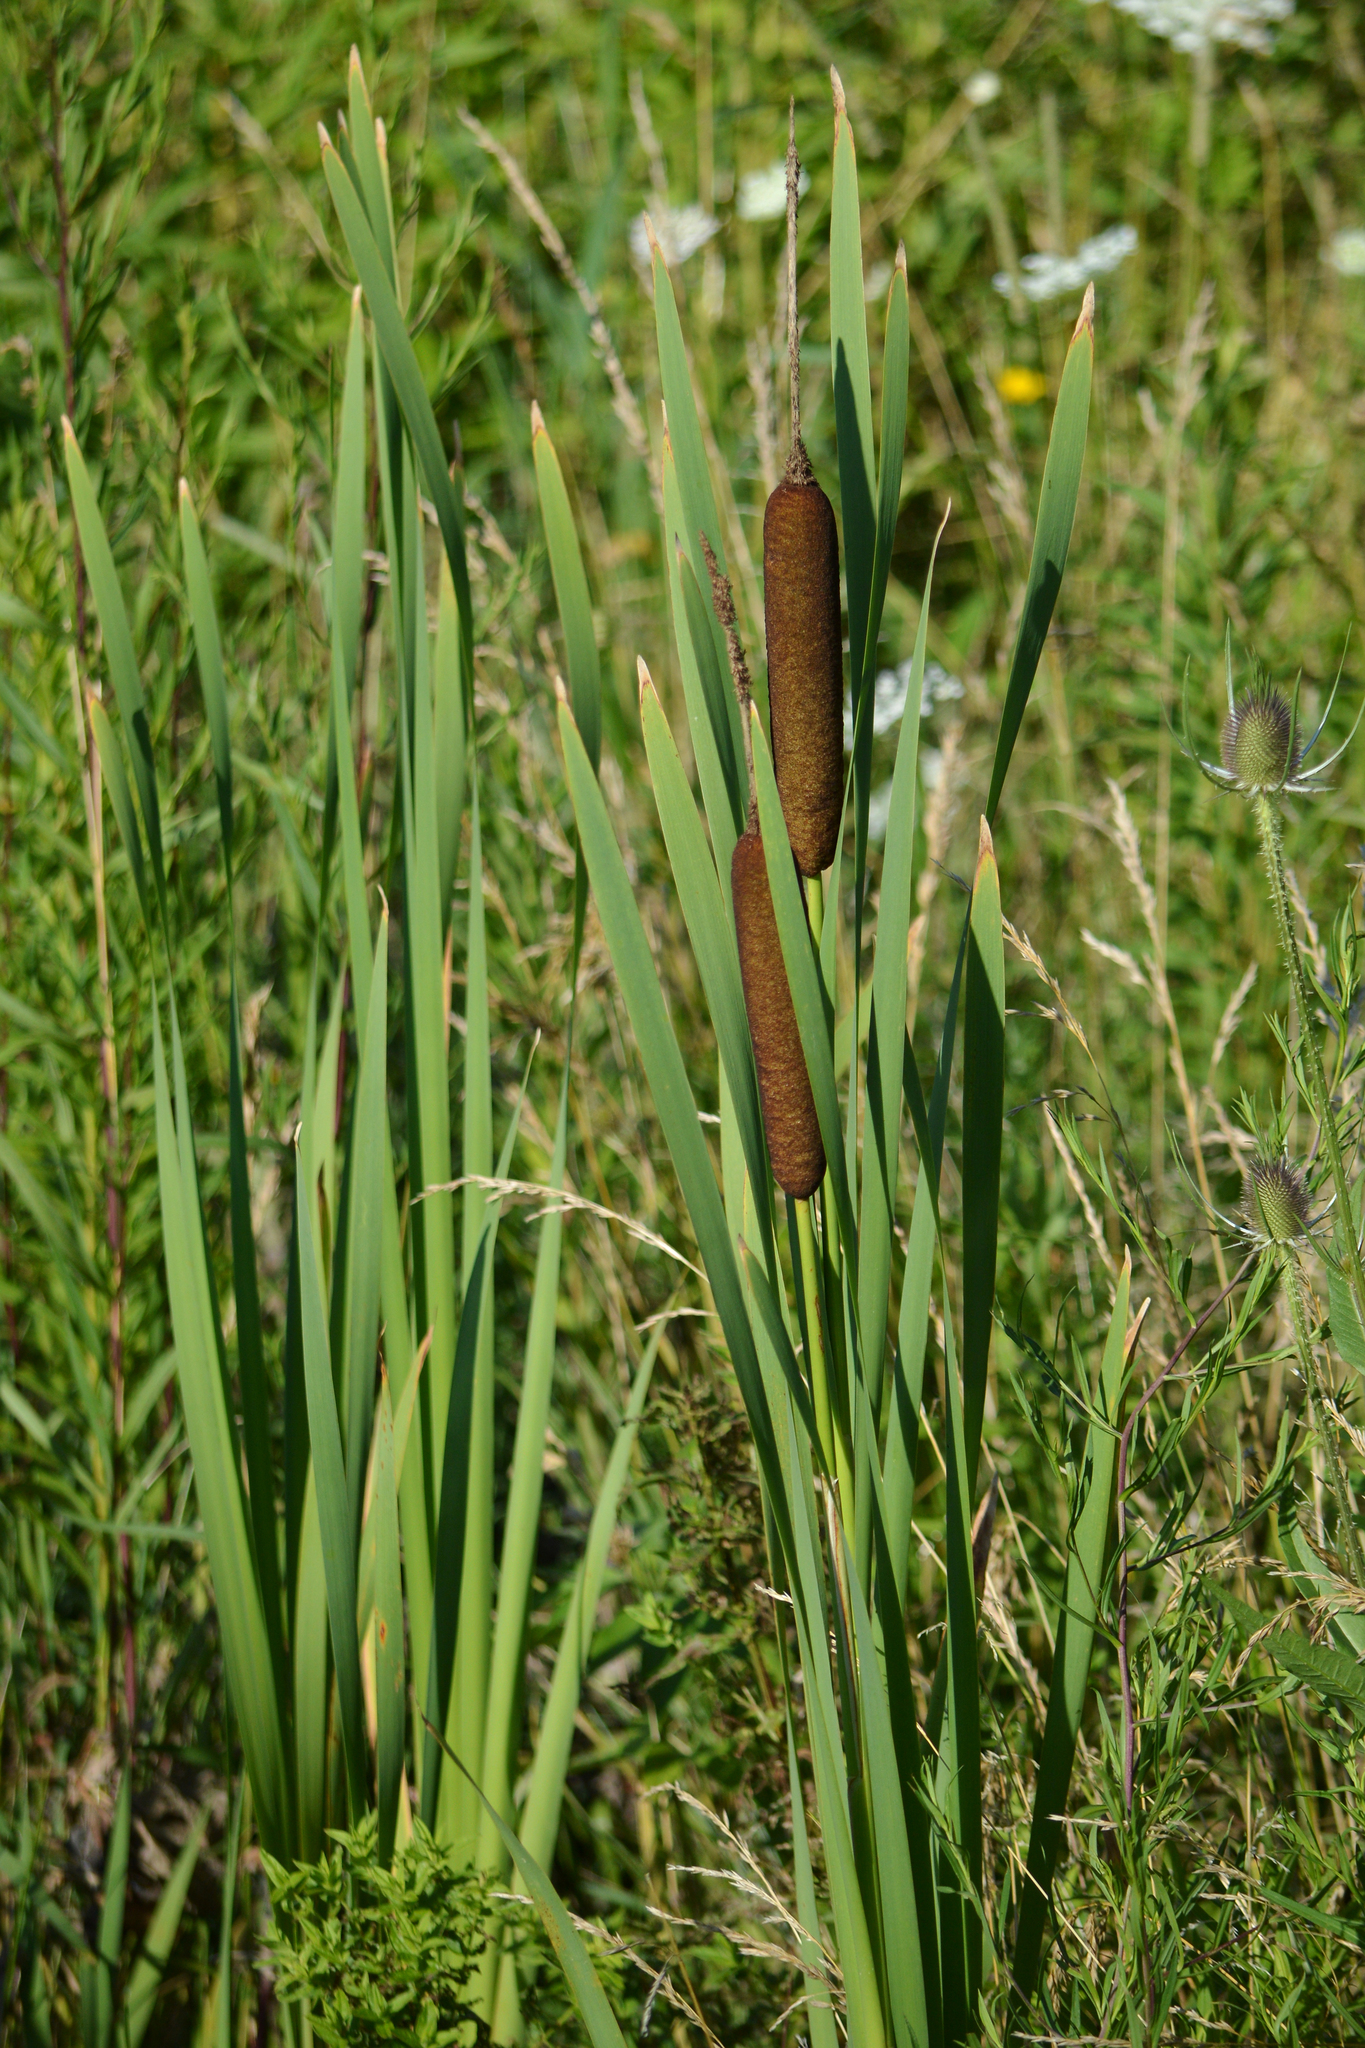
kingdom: Plantae
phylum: Tracheophyta
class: Liliopsida
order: Poales
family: Typhaceae
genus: Typha
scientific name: Typha latifolia
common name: Broadleaf cattail
